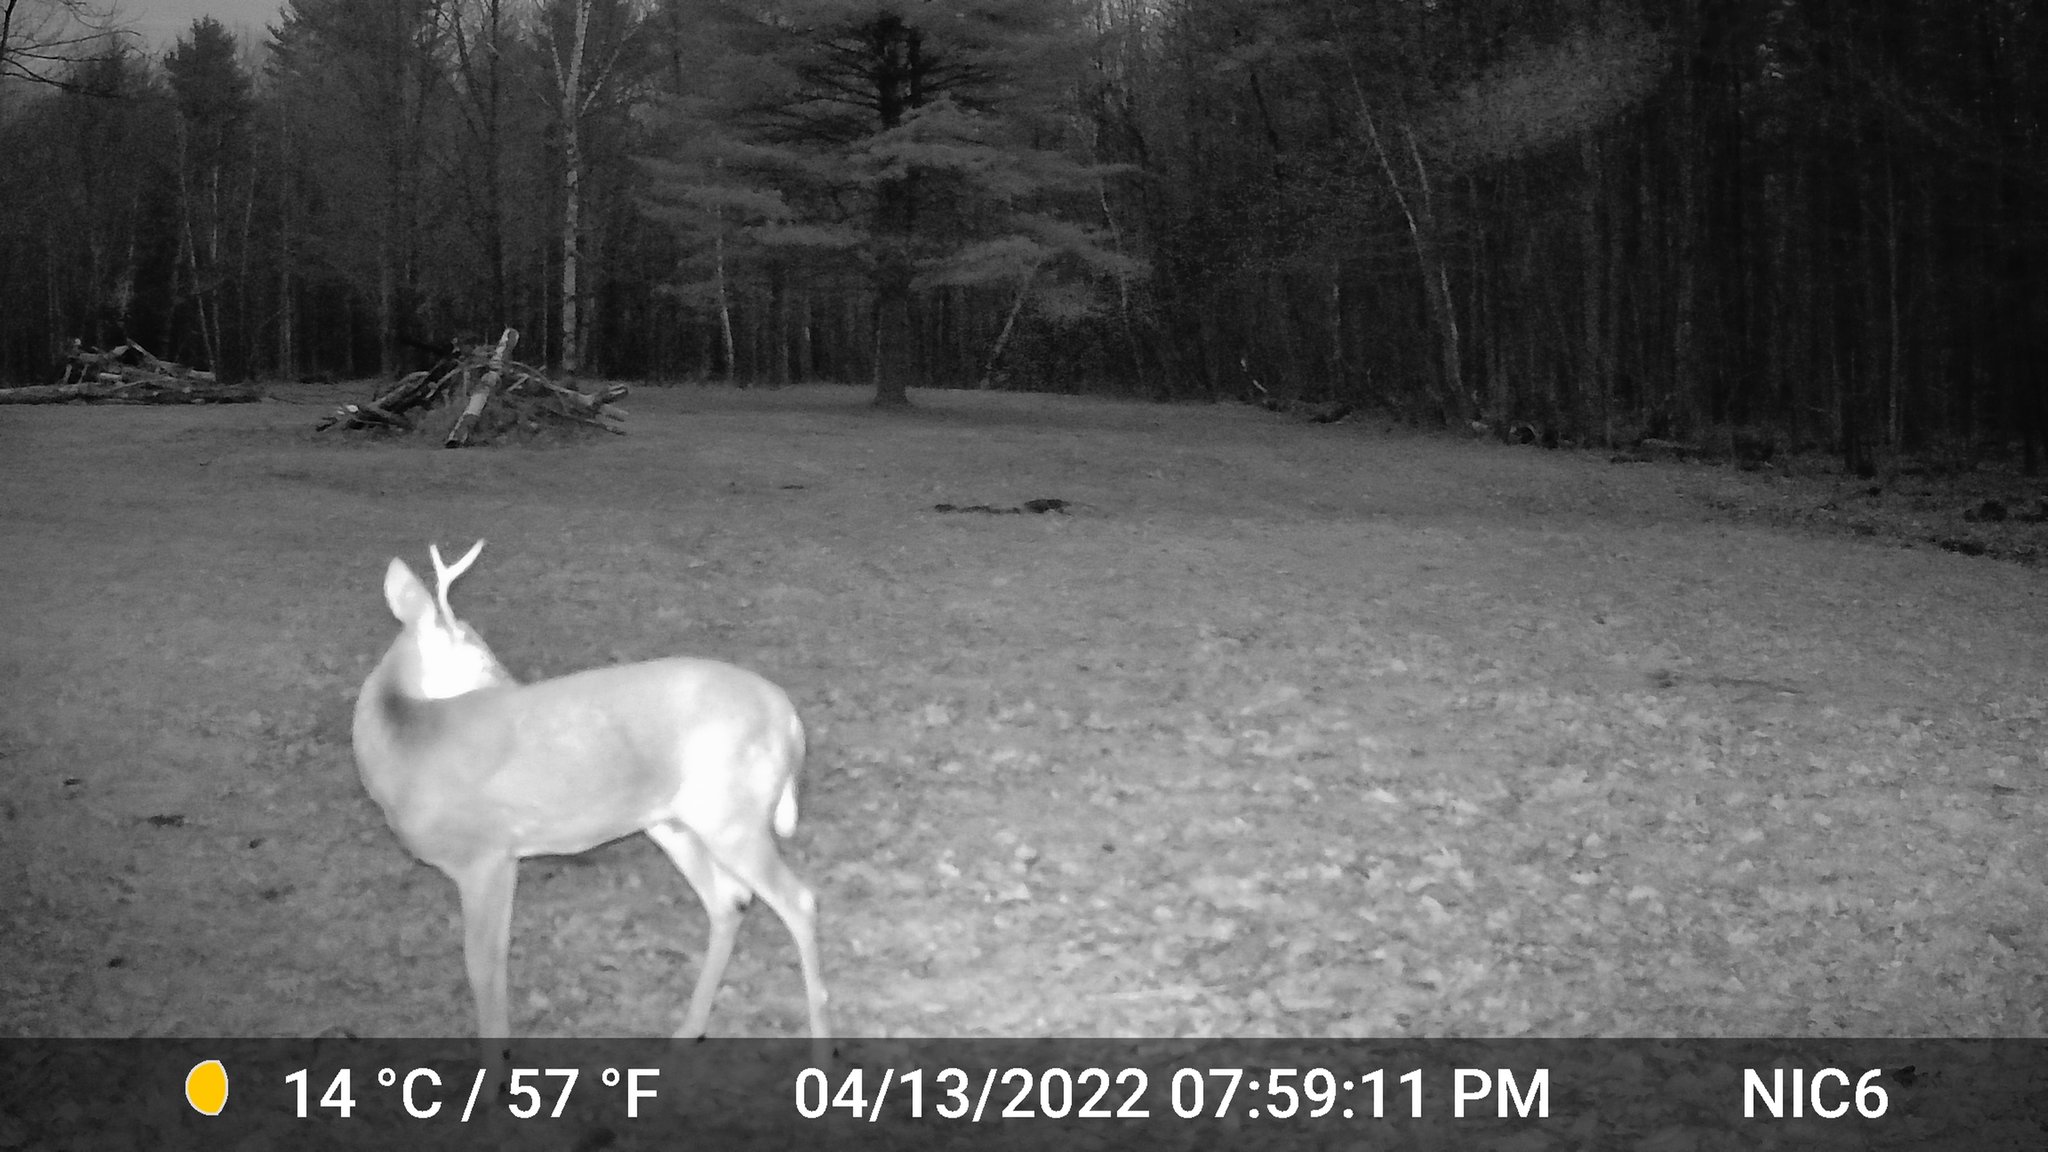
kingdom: Animalia
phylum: Chordata
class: Mammalia
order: Artiodactyla
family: Cervidae
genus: Odocoileus
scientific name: Odocoileus virginianus
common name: White-tailed deer
